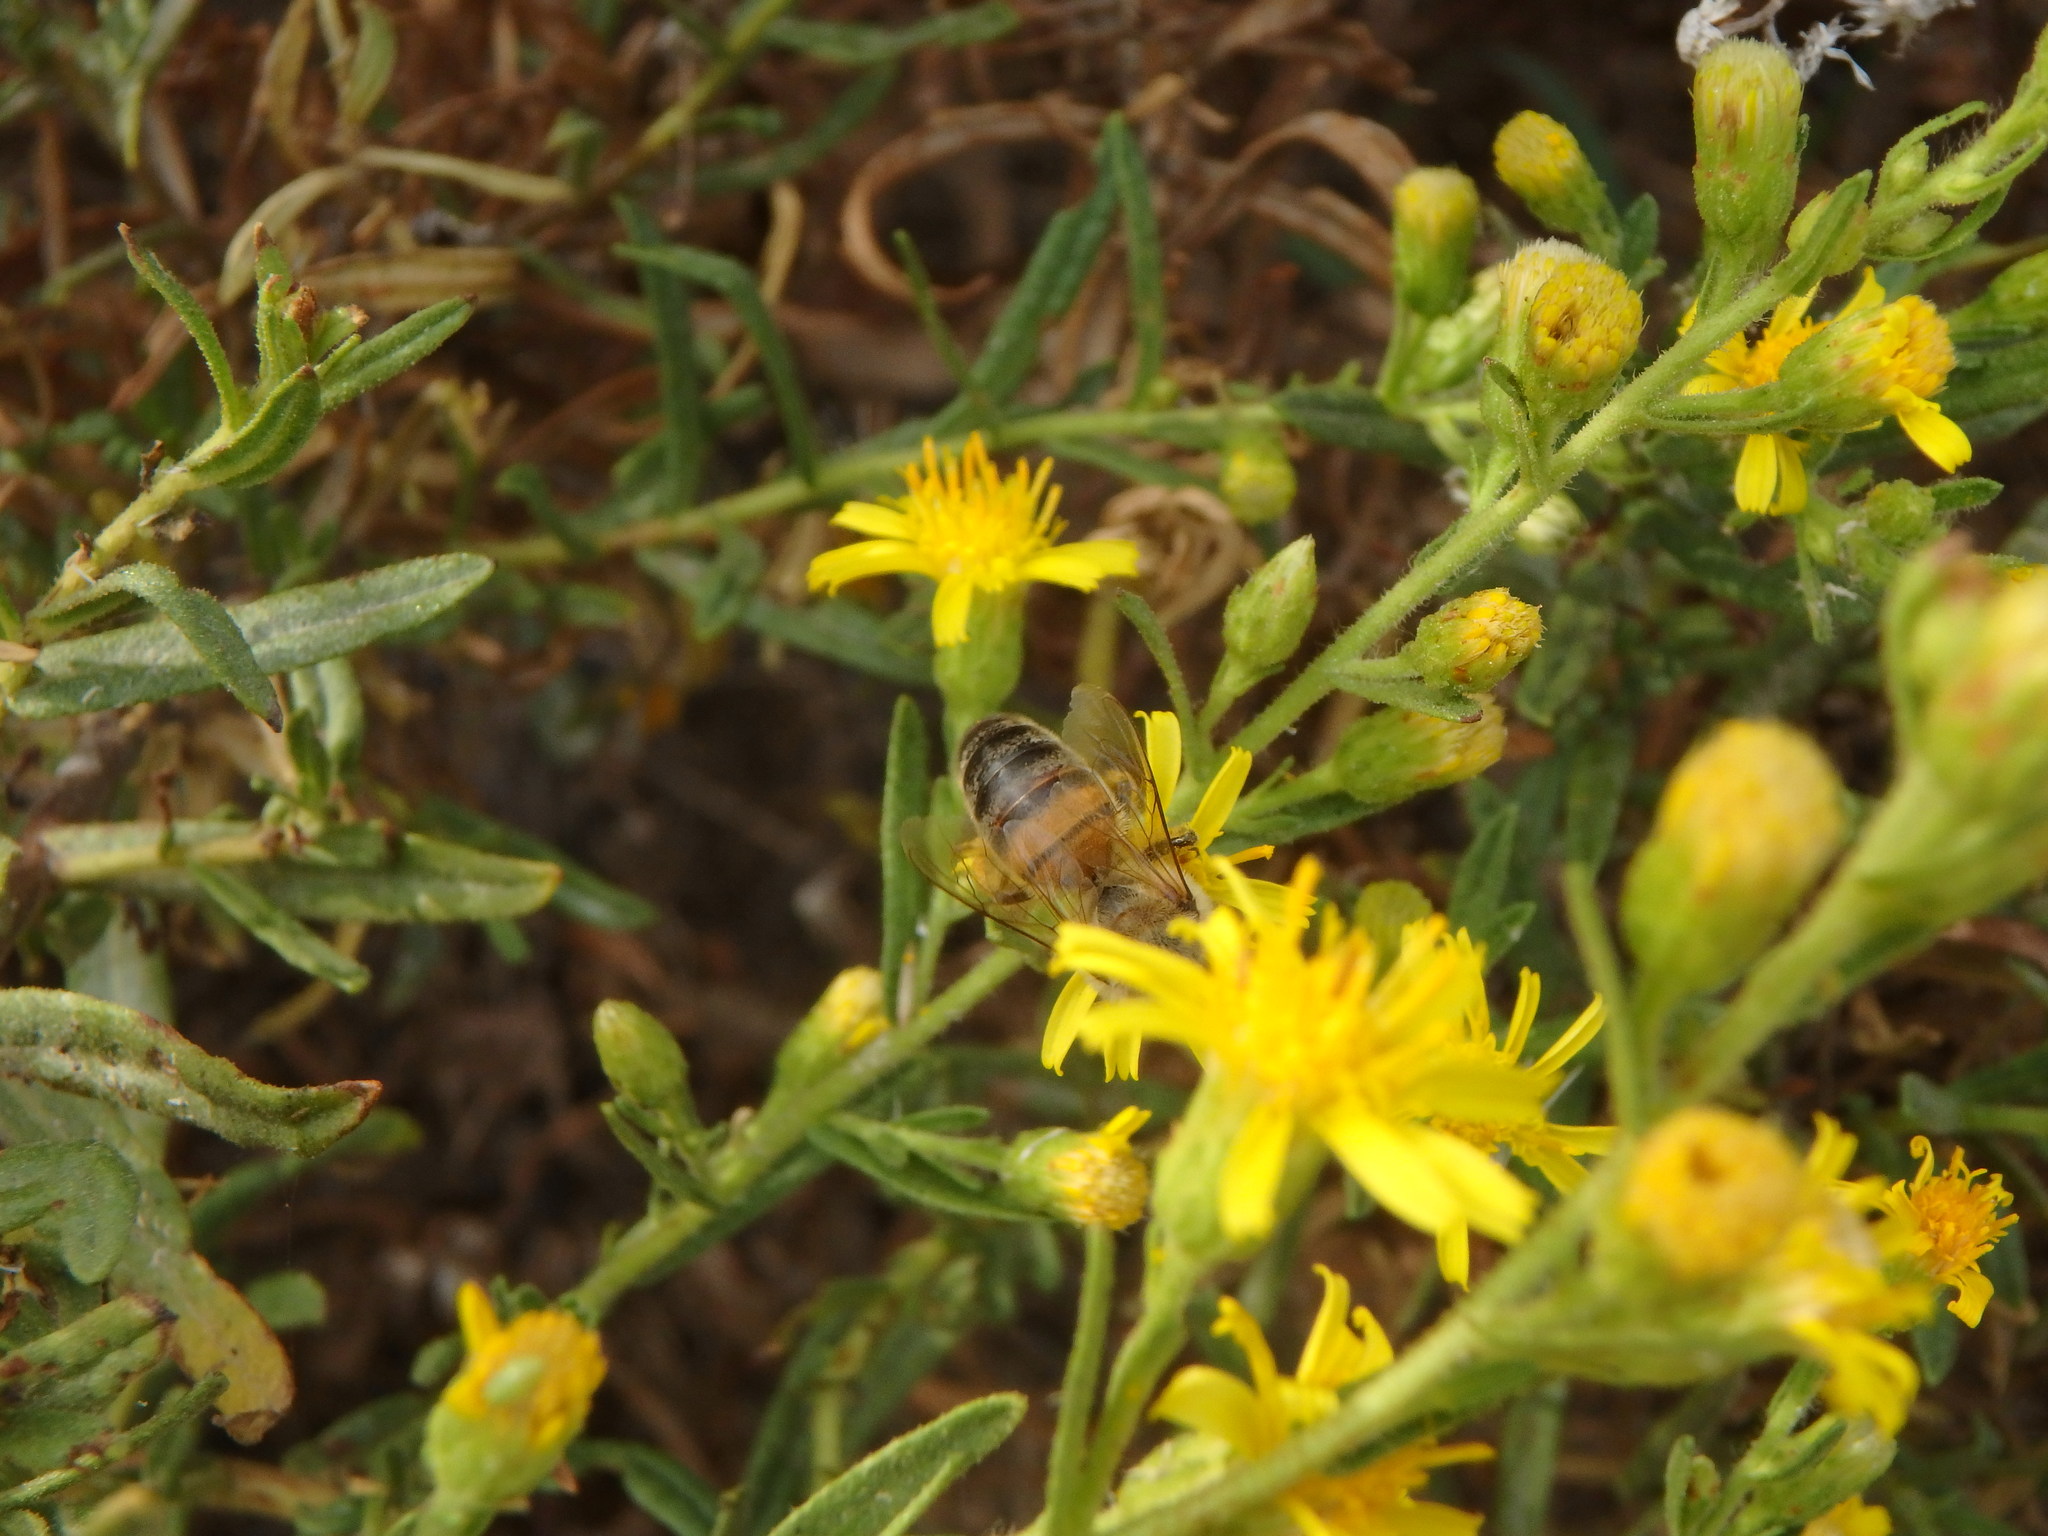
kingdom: Animalia
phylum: Arthropoda
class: Insecta
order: Hymenoptera
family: Apidae
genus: Apis
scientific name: Apis mellifera
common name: Honey bee
